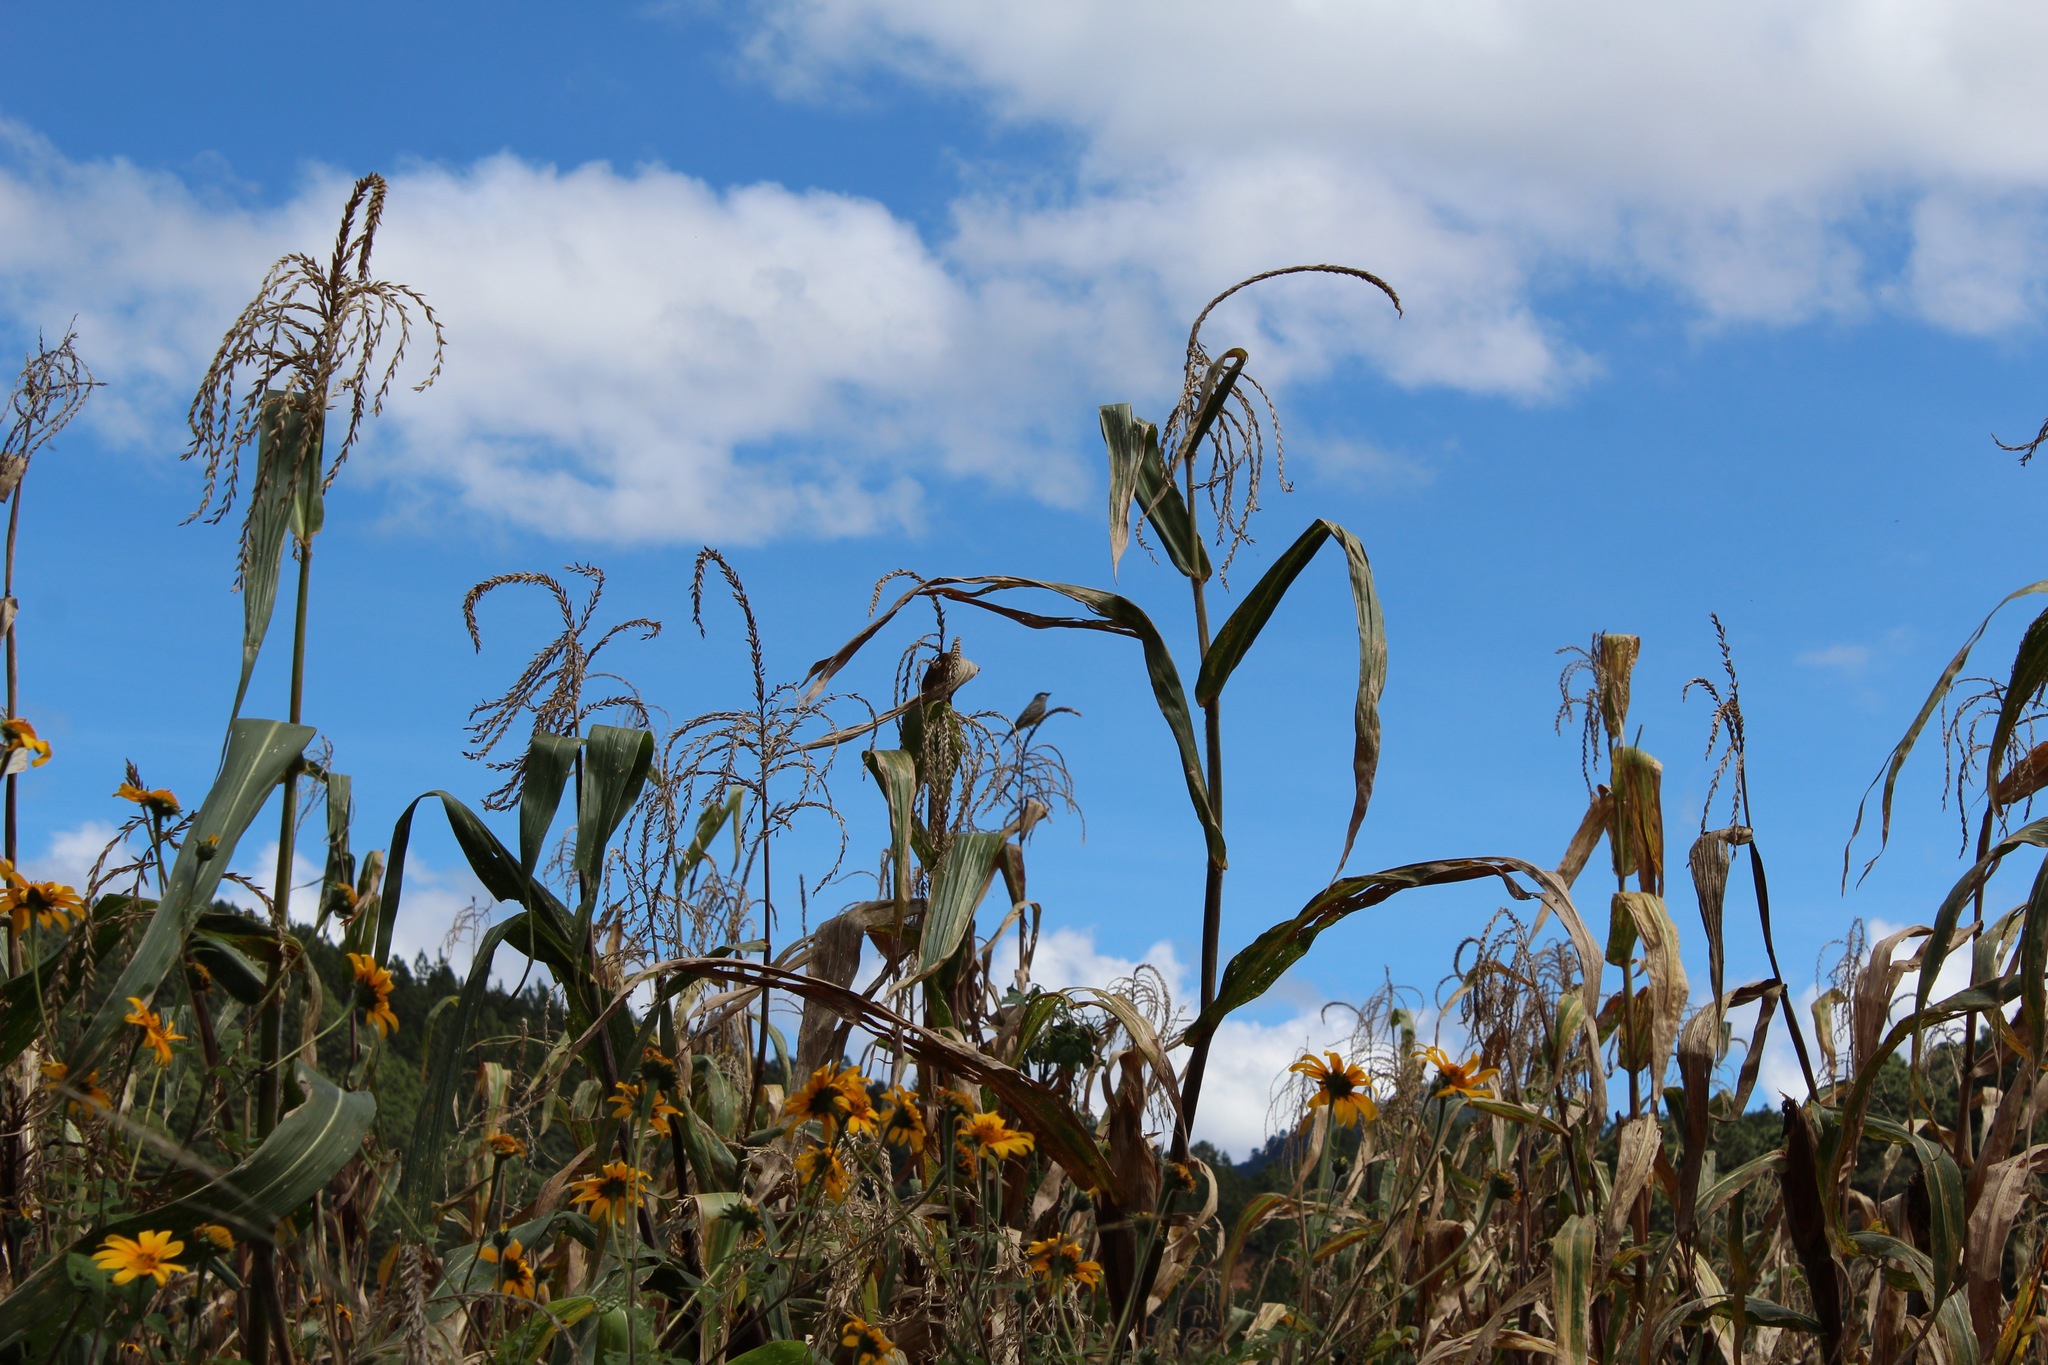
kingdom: Animalia
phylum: Chordata
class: Aves
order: Passeriformes
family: Tyrannidae
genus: Tyrannus
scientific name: Tyrannus vociferans
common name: Cassin's kingbird
